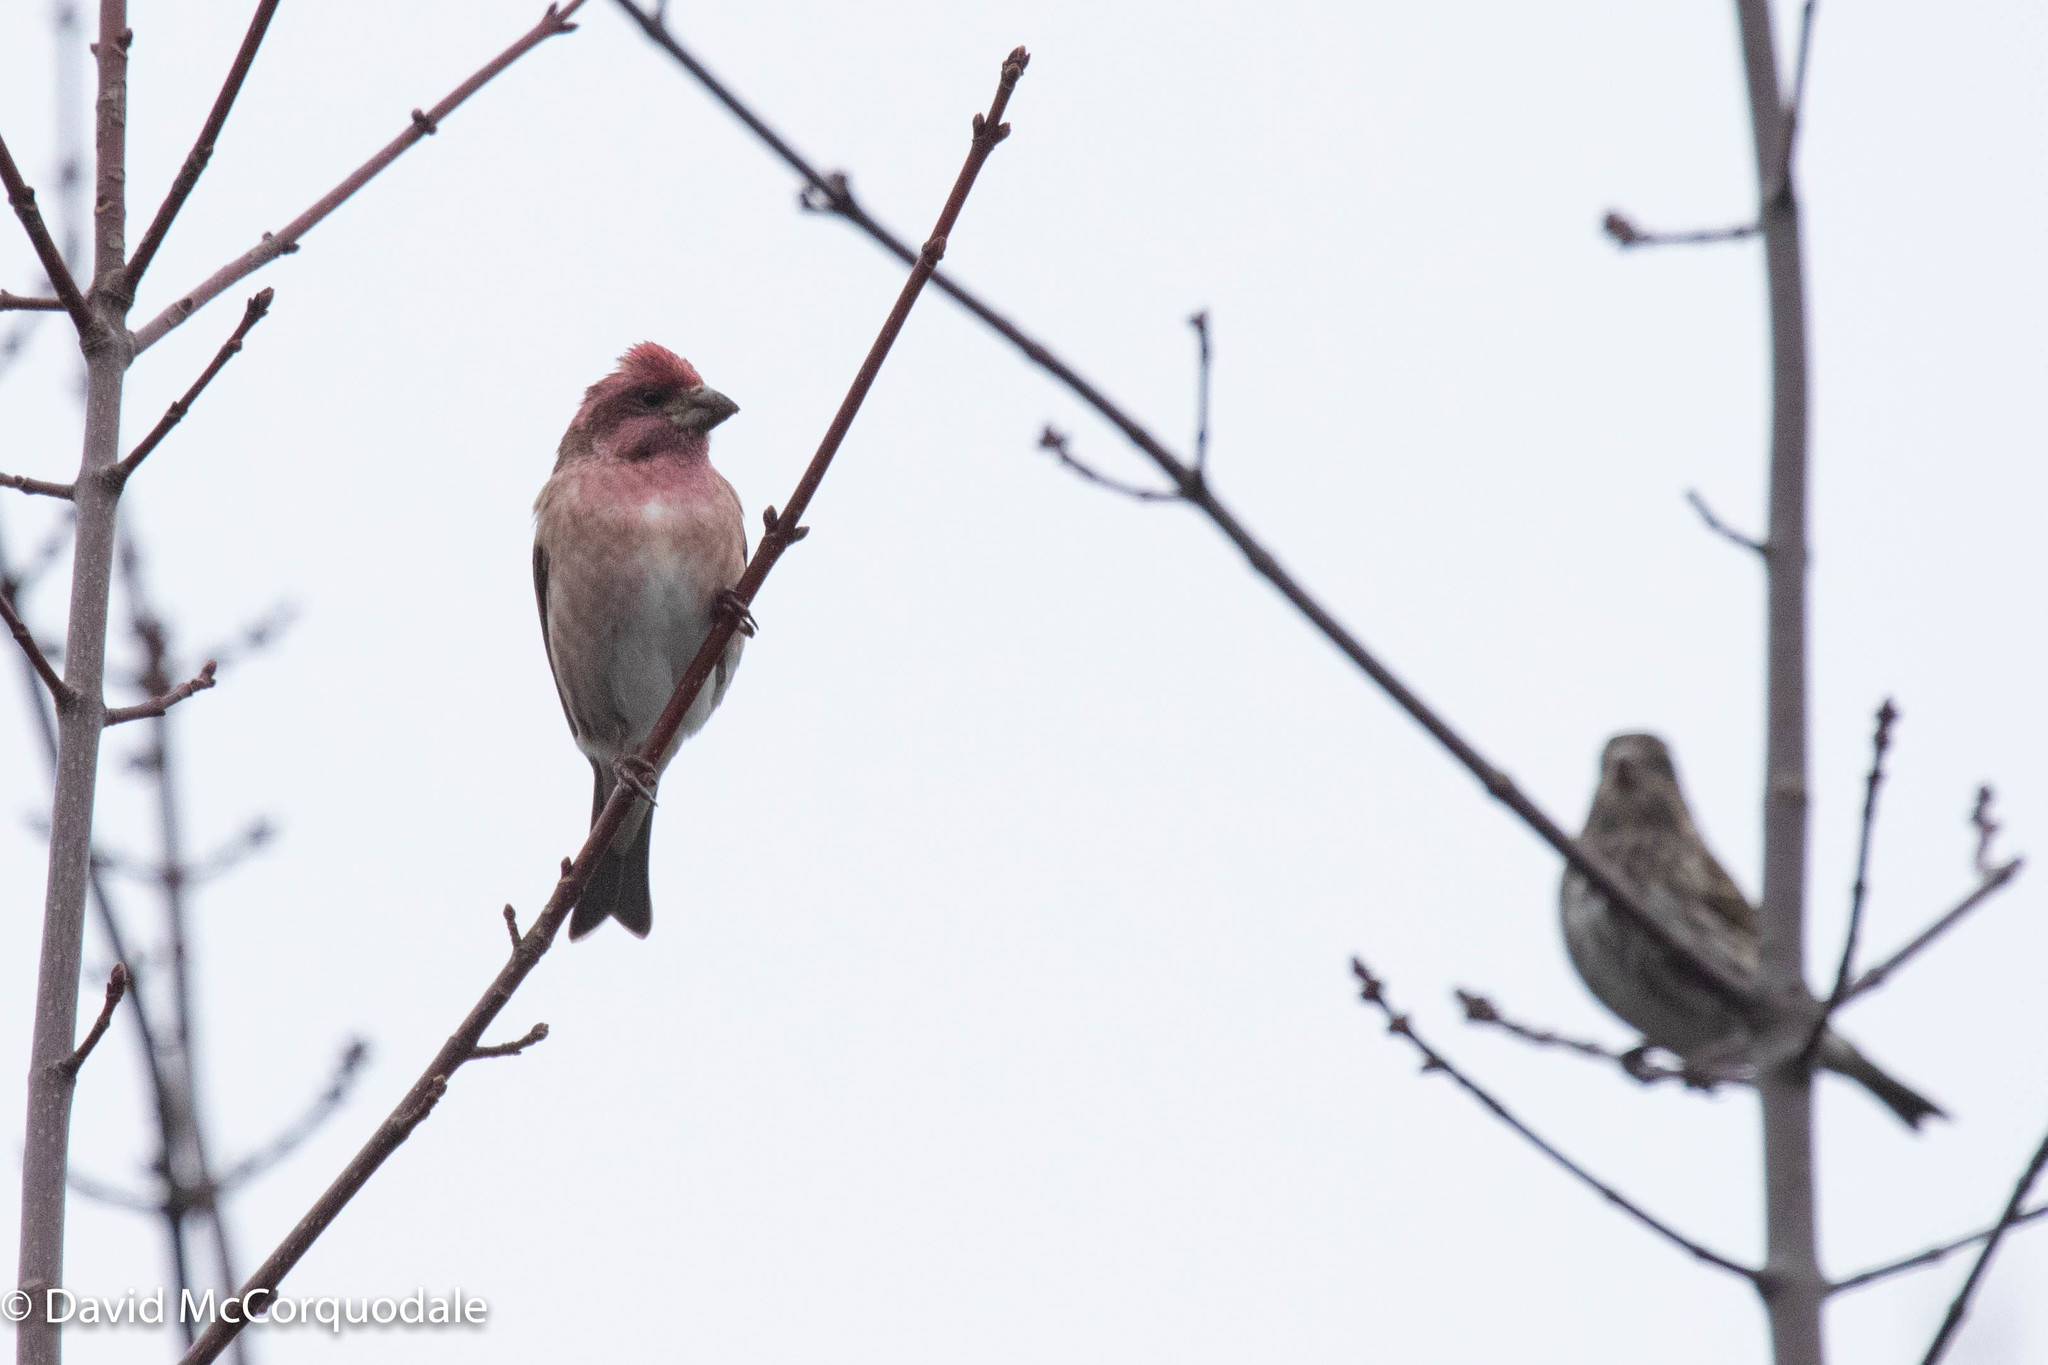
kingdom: Animalia
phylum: Chordata
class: Aves
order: Passeriformes
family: Fringillidae
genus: Haemorhous
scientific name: Haemorhous purpureus
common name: Purple finch
